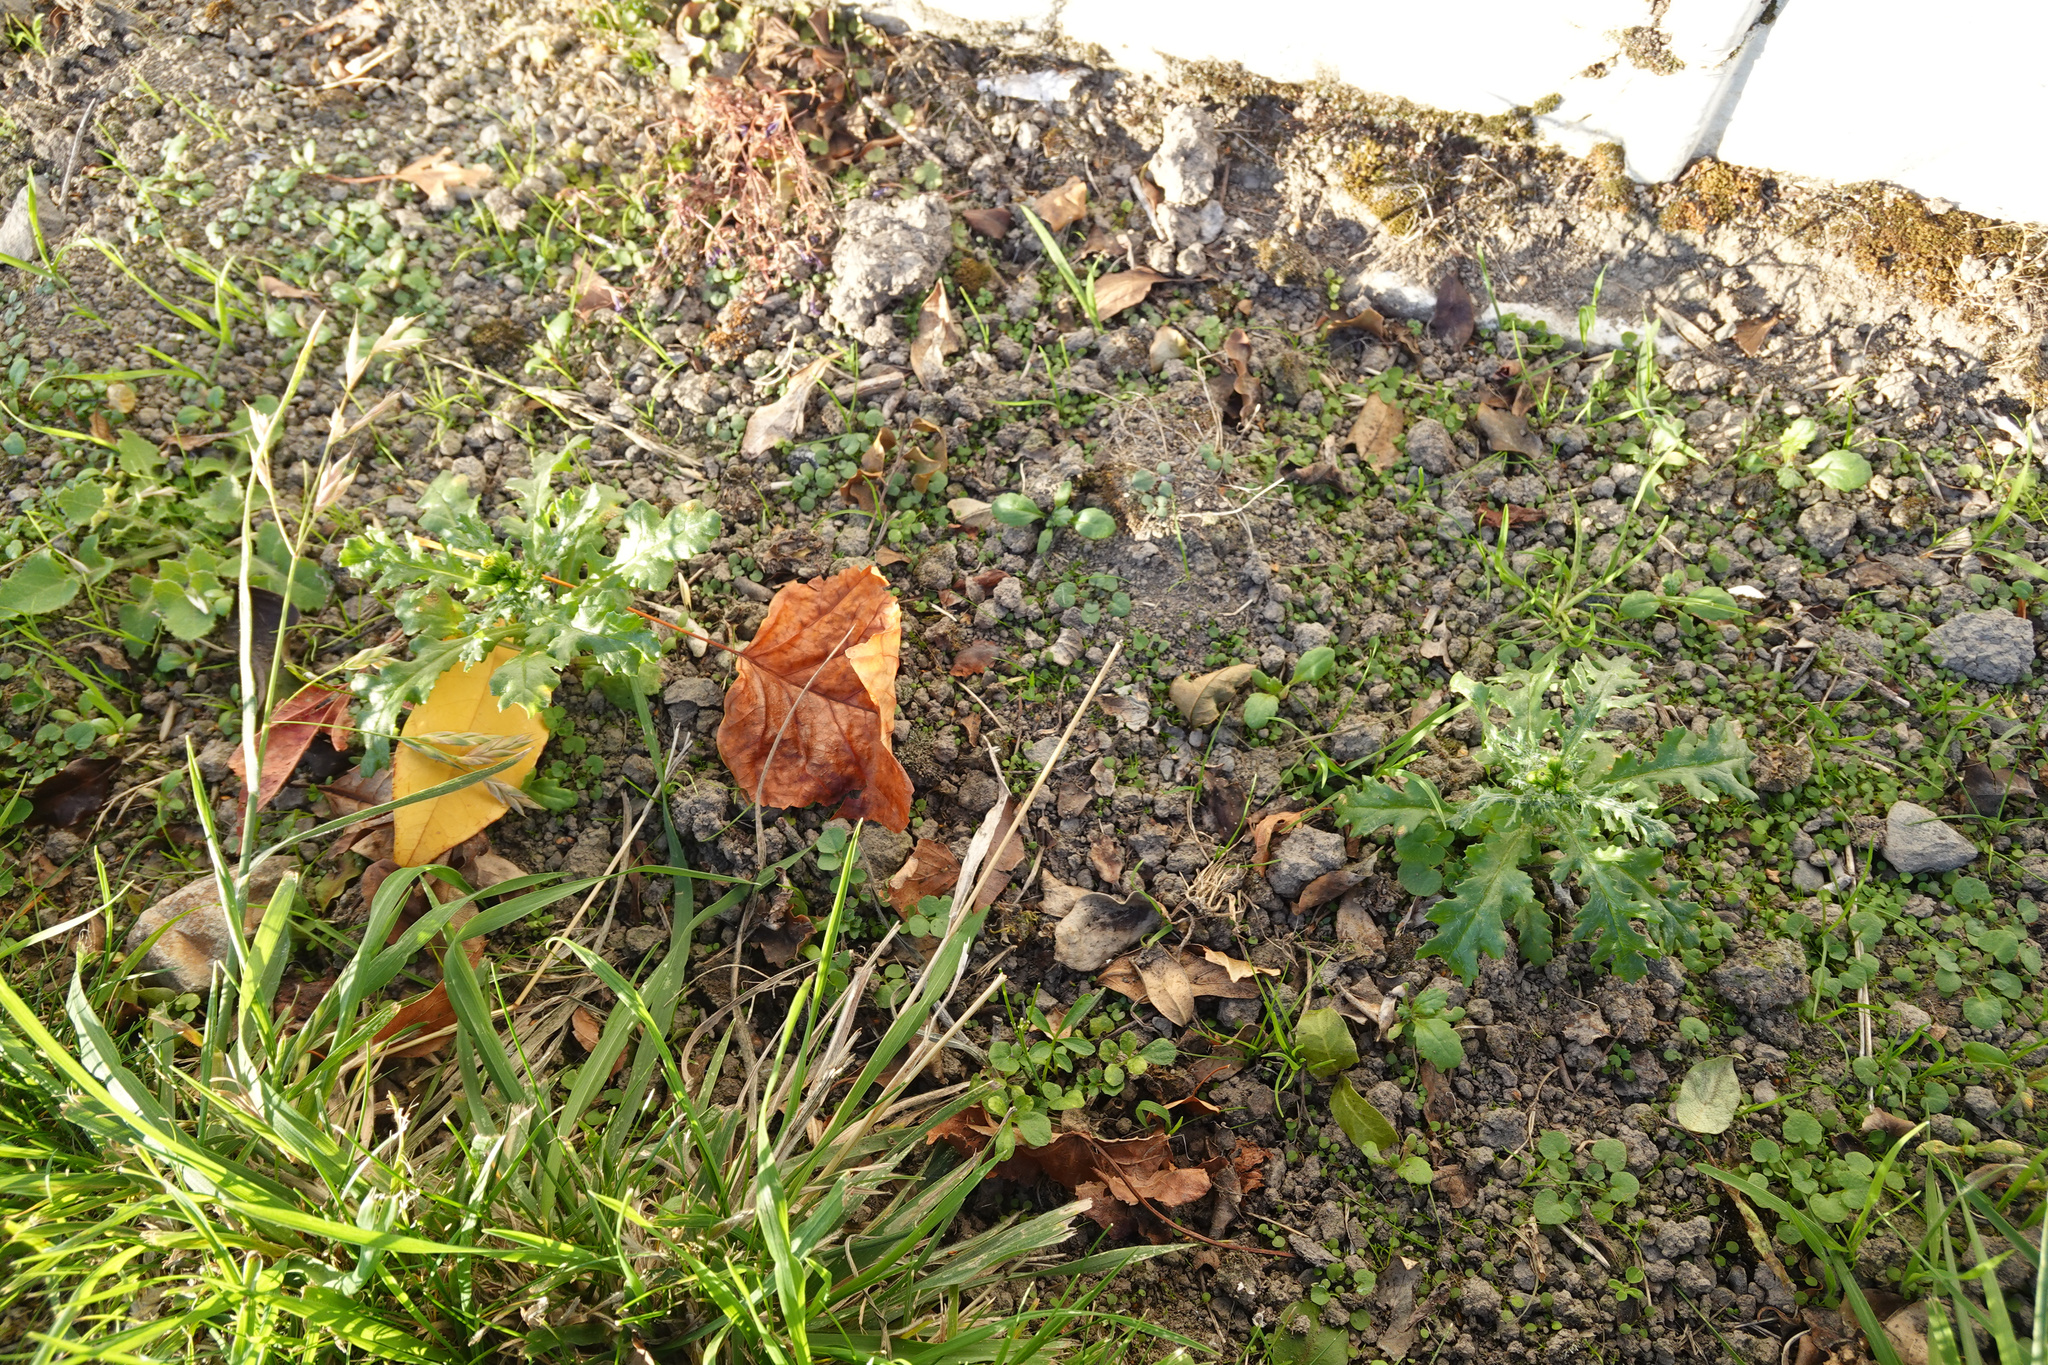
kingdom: Plantae
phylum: Tracheophyta
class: Magnoliopsida
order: Asterales
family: Asteraceae
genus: Senecio
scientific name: Senecio vulgaris
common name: Old-man-in-the-spring
